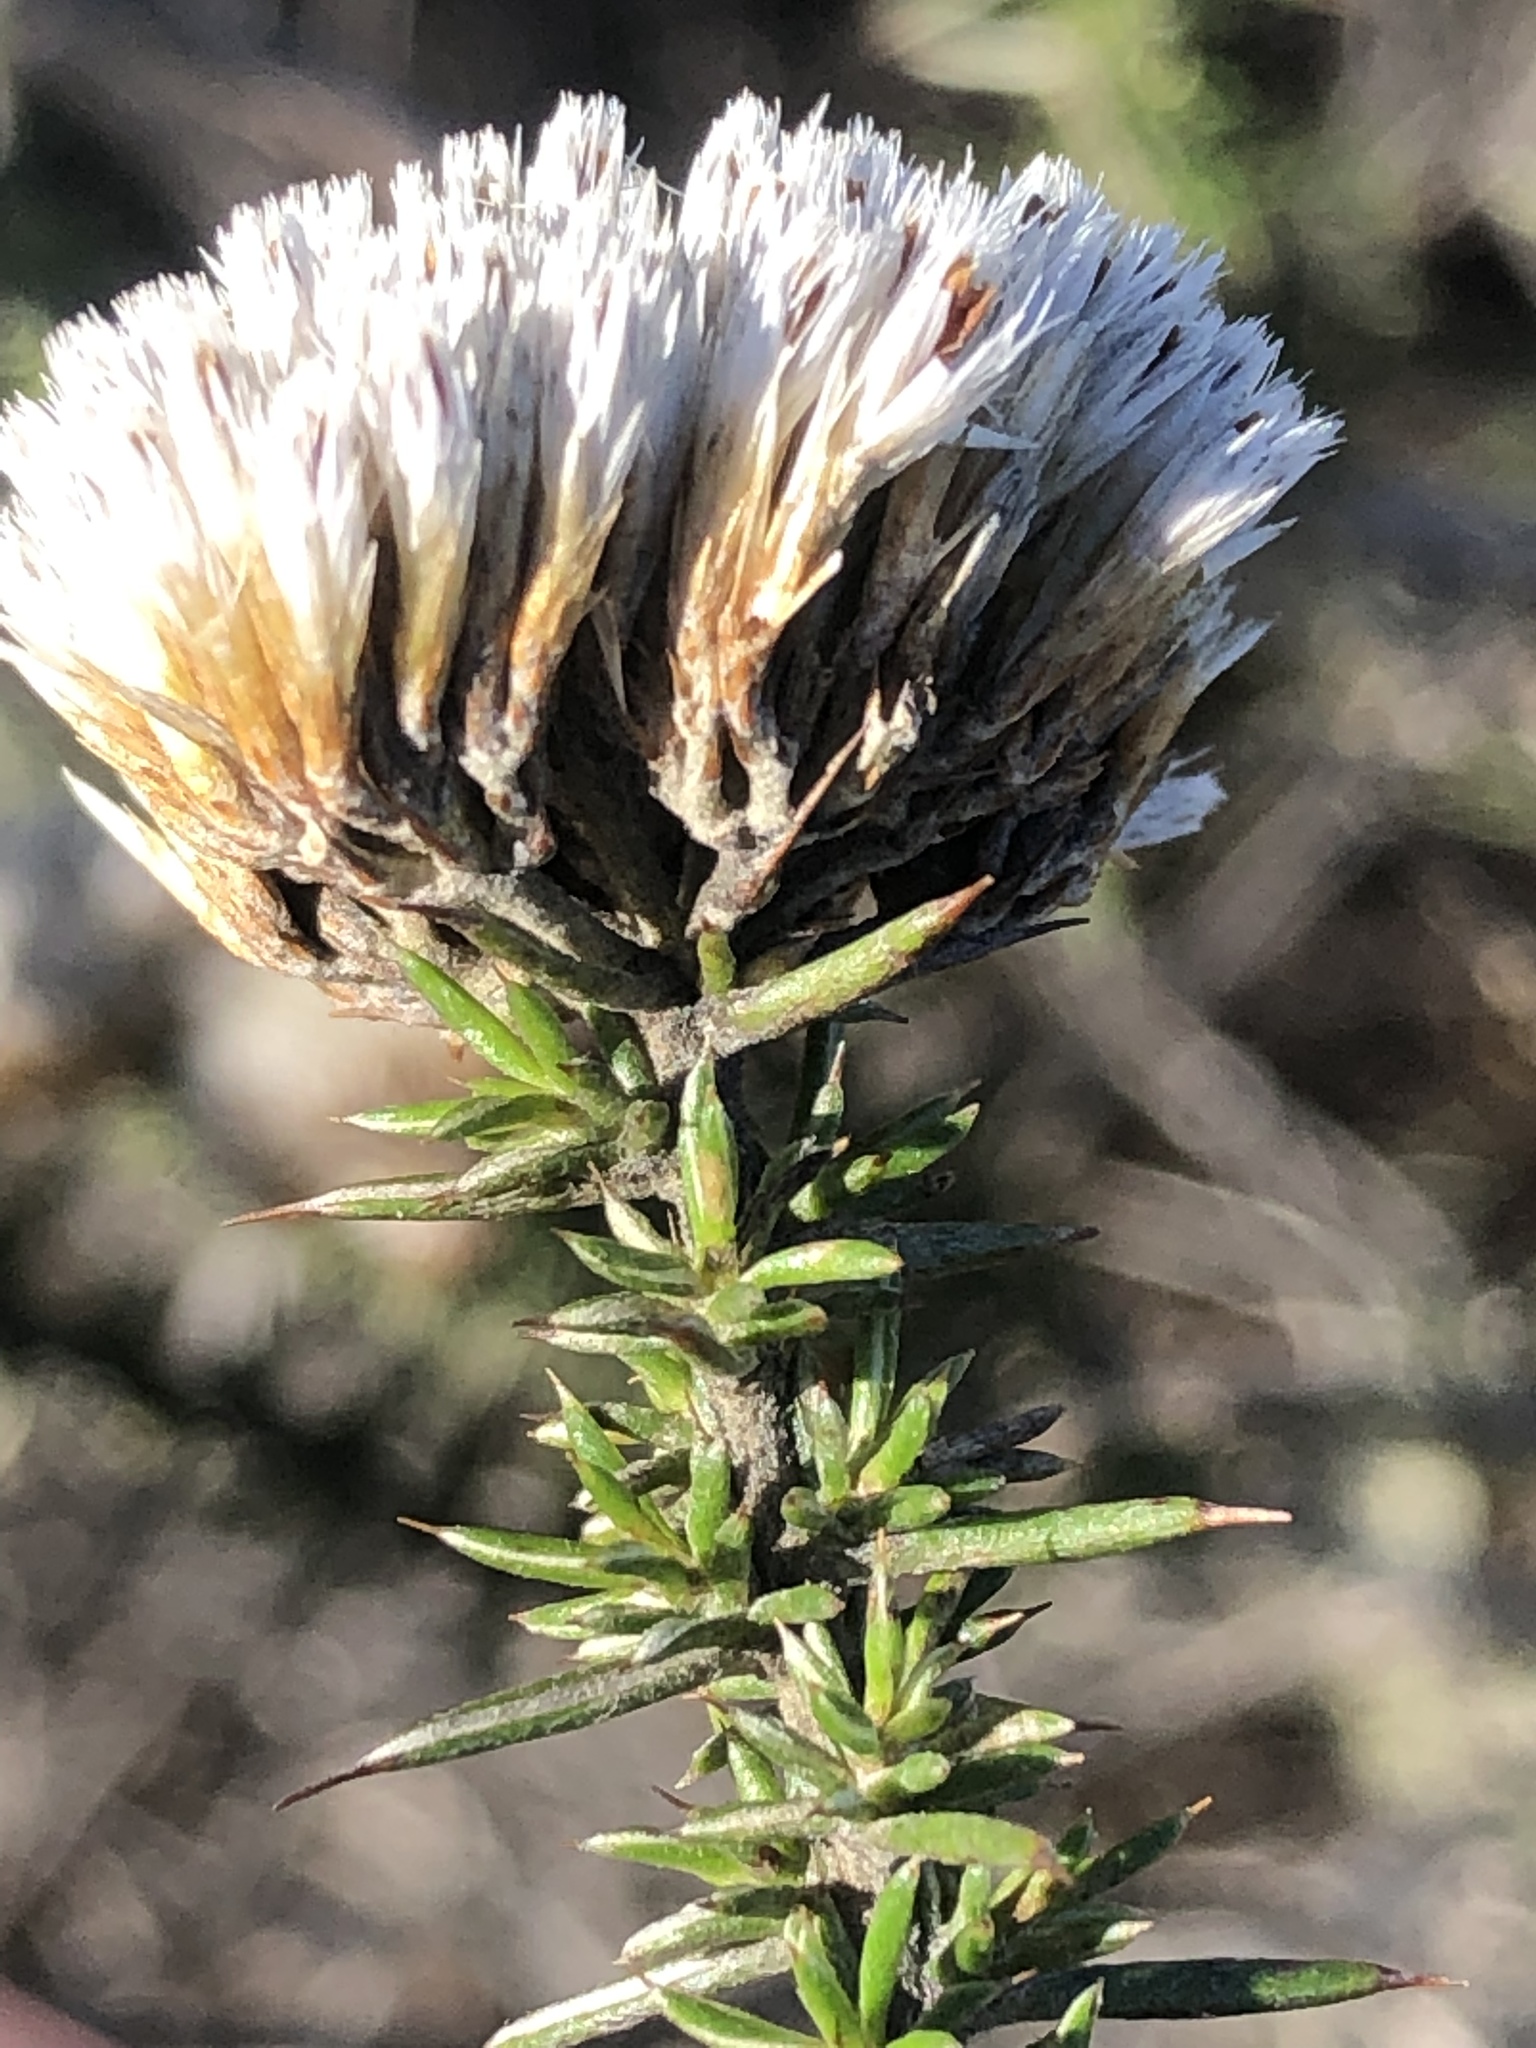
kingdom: Plantae
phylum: Tracheophyta
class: Magnoliopsida
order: Asterales
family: Asteraceae
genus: Metalasia
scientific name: Metalasia acuta
